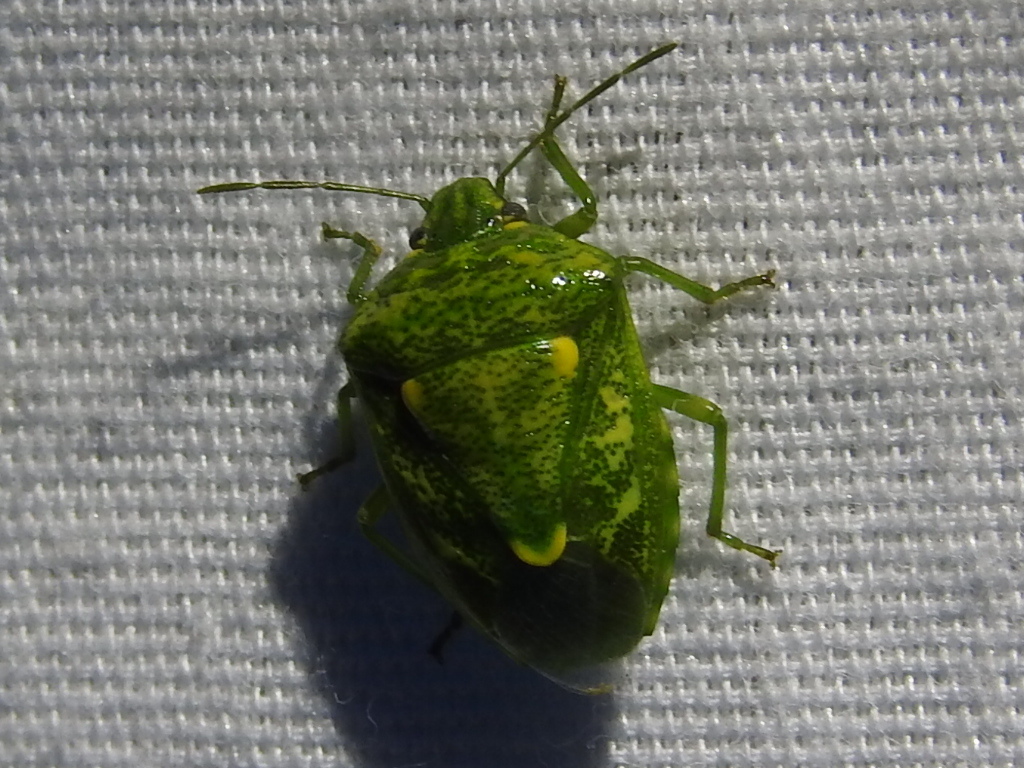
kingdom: Animalia
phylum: Arthropoda
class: Insecta
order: Hemiptera
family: Pentatomidae
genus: Banasa
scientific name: Banasa euchlora
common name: Cedar berry bug
